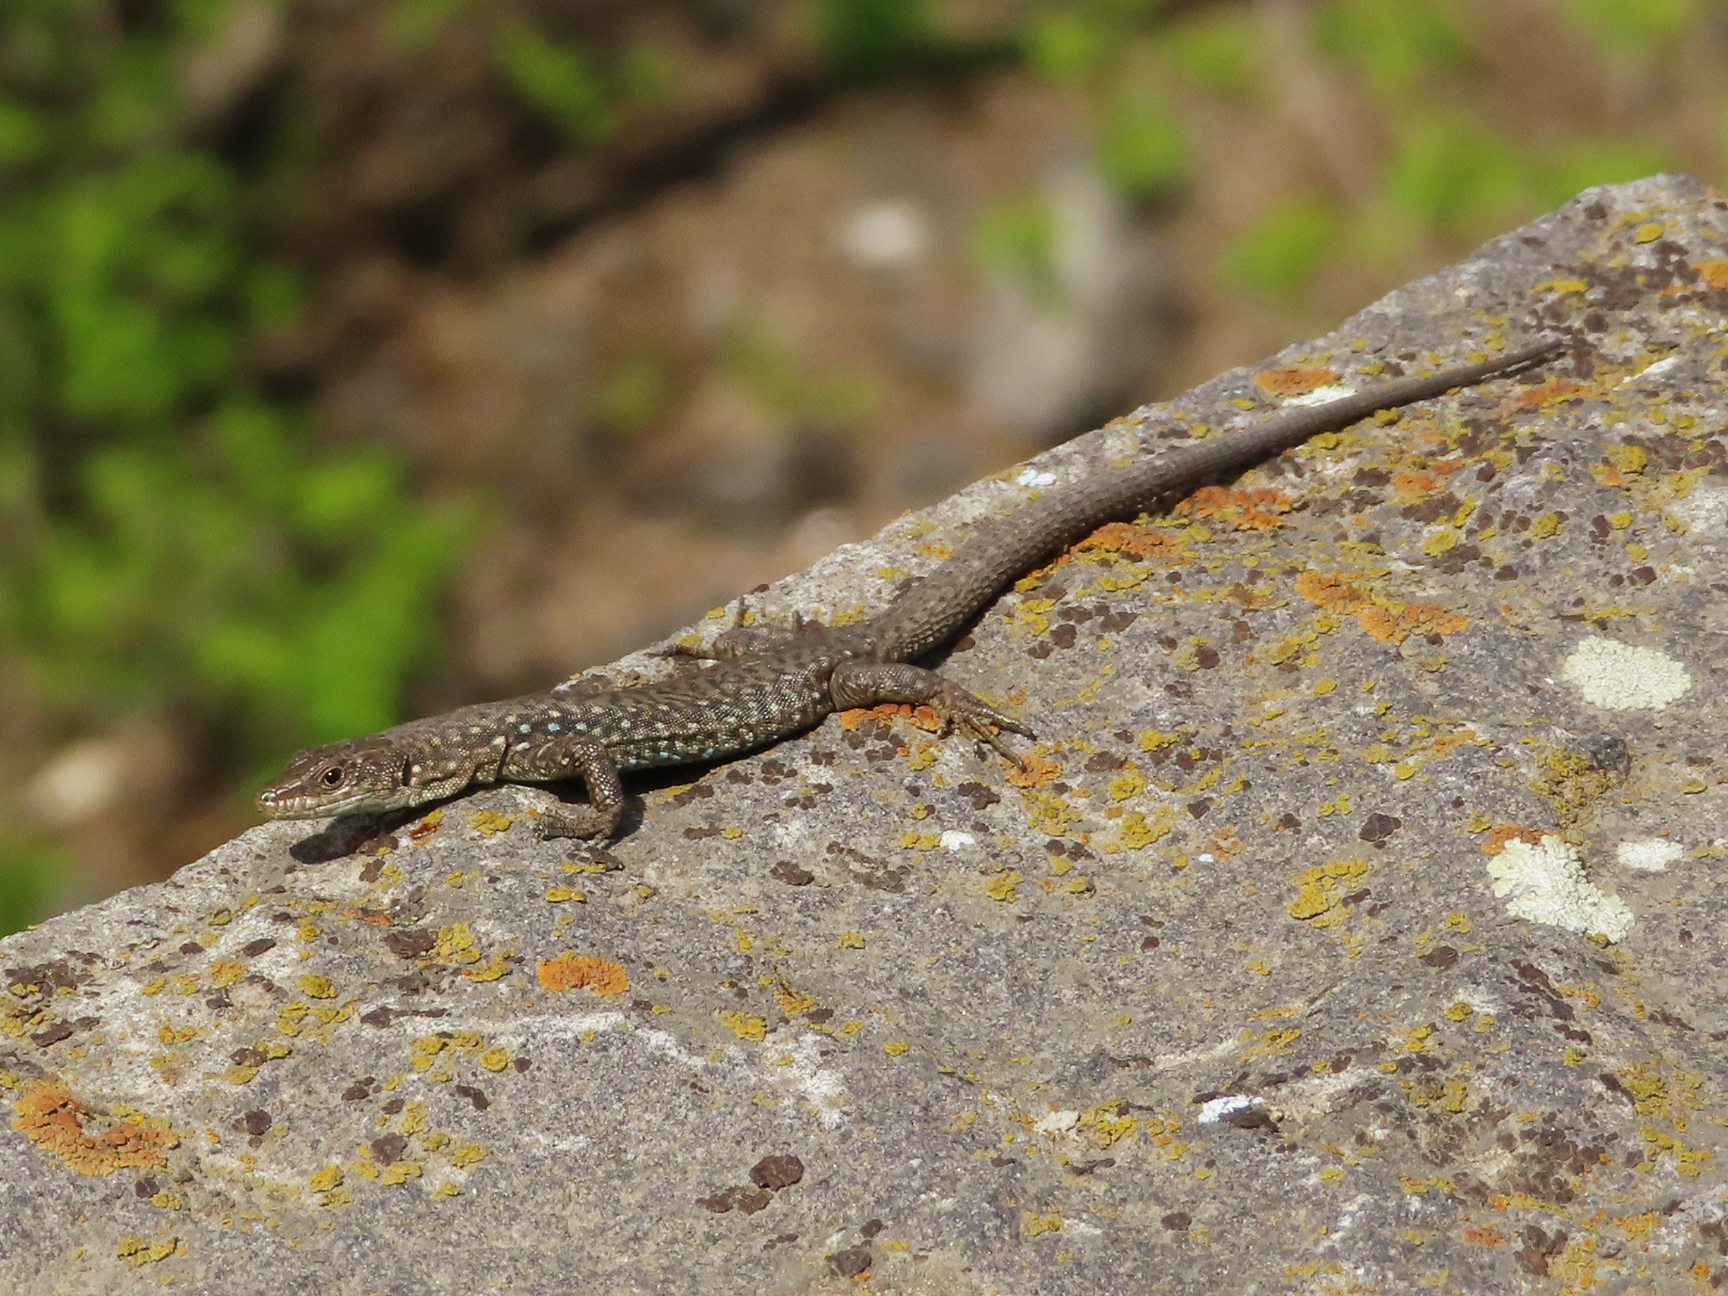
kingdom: Animalia
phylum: Chordata
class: Squamata
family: Lacertidae
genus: Darevskia
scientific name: Darevskia
